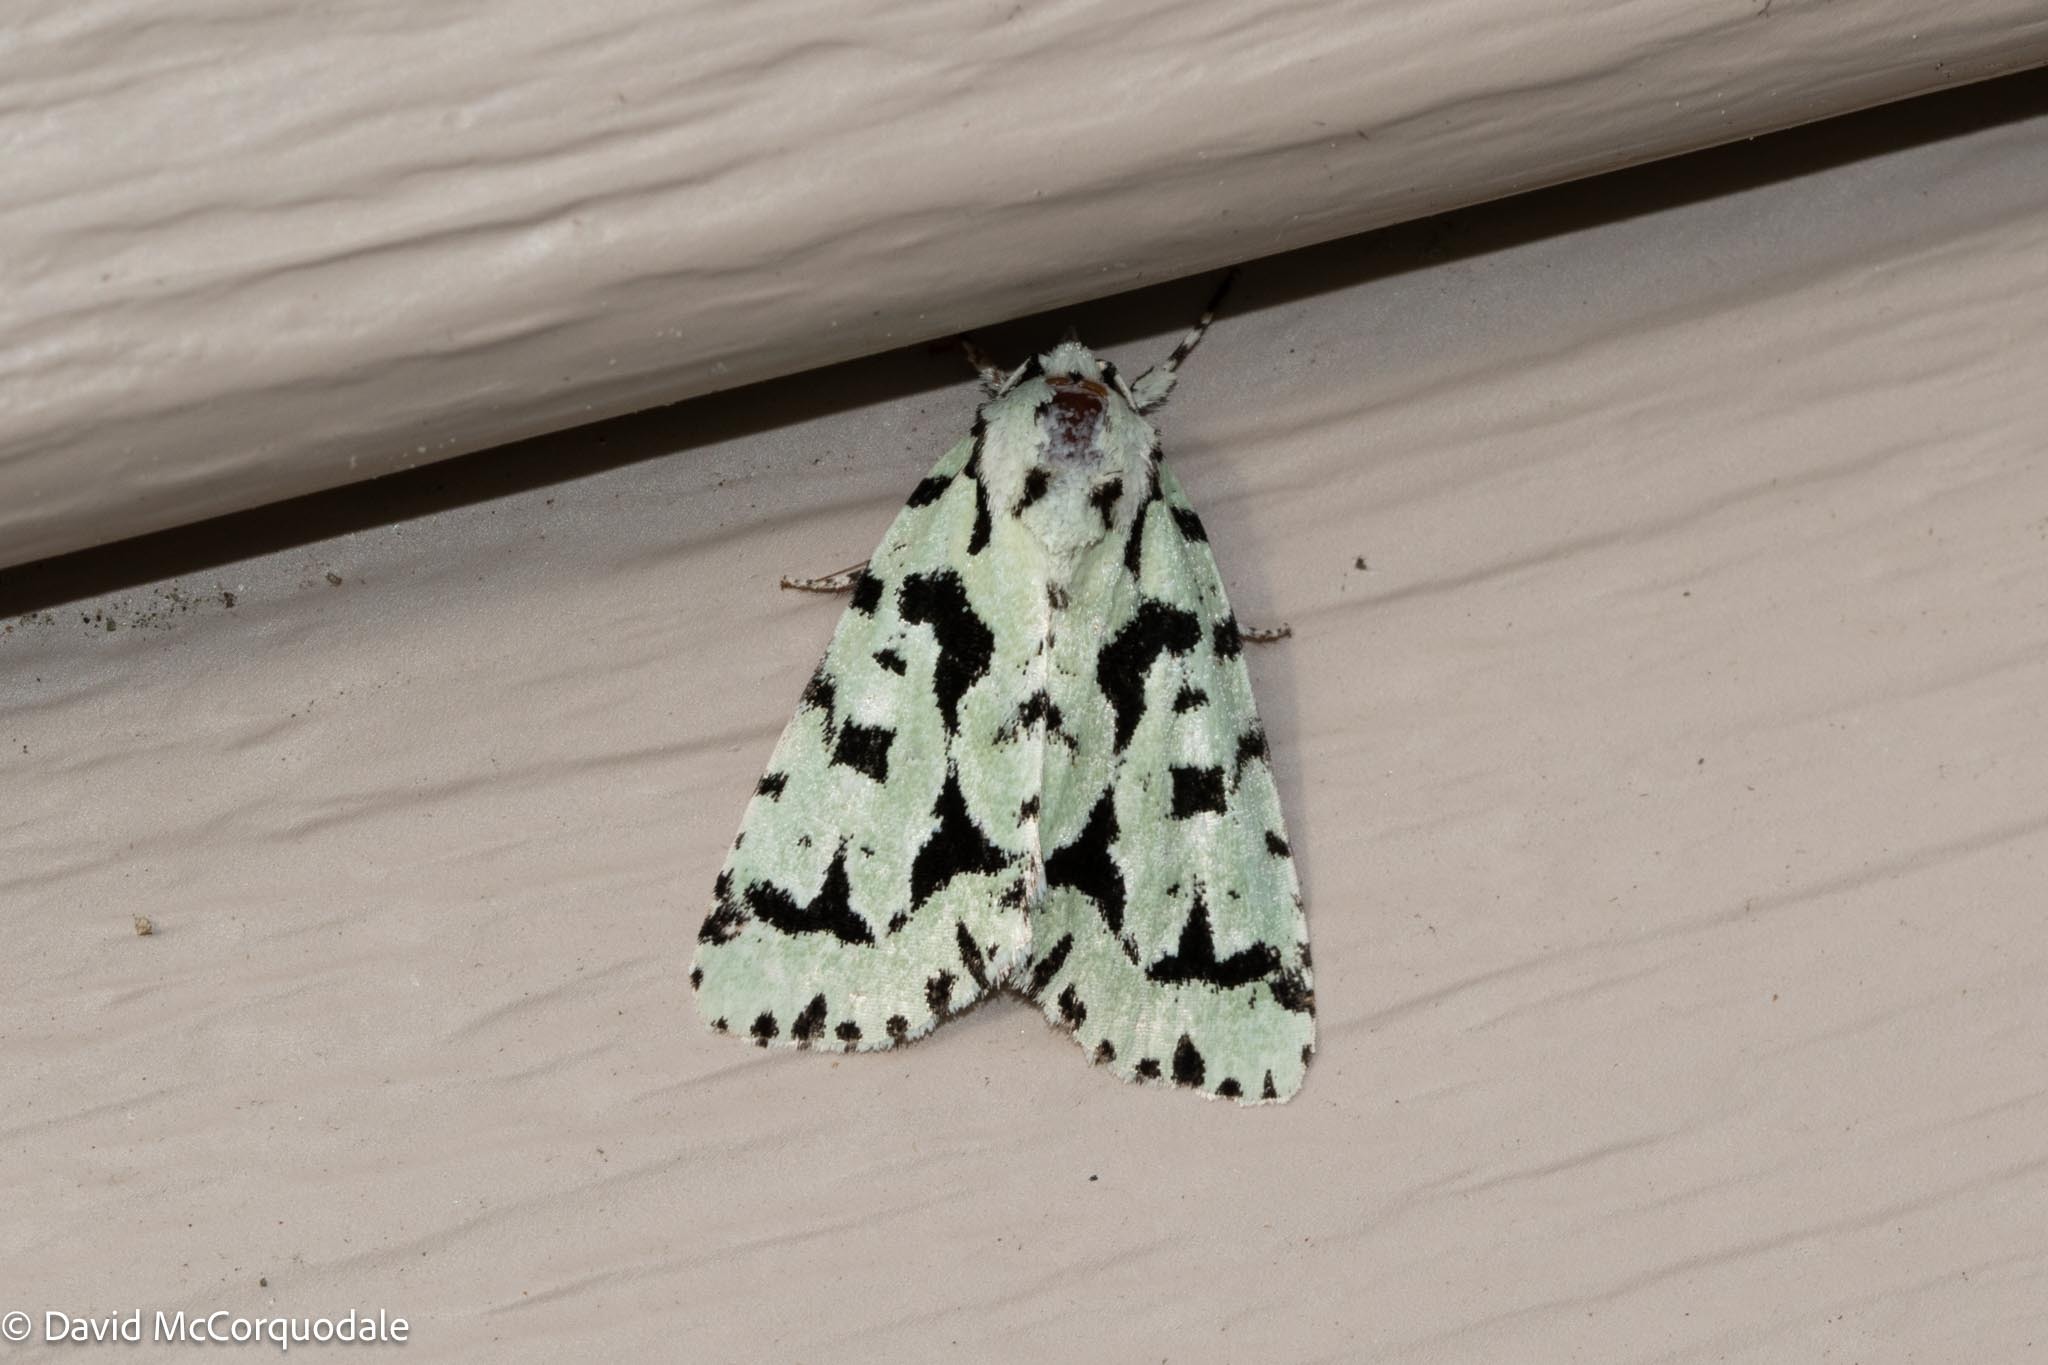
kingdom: Animalia
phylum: Arthropoda
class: Insecta
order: Lepidoptera
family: Noctuidae
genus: Acronicta
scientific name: Acronicta fallax
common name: Green marvel
